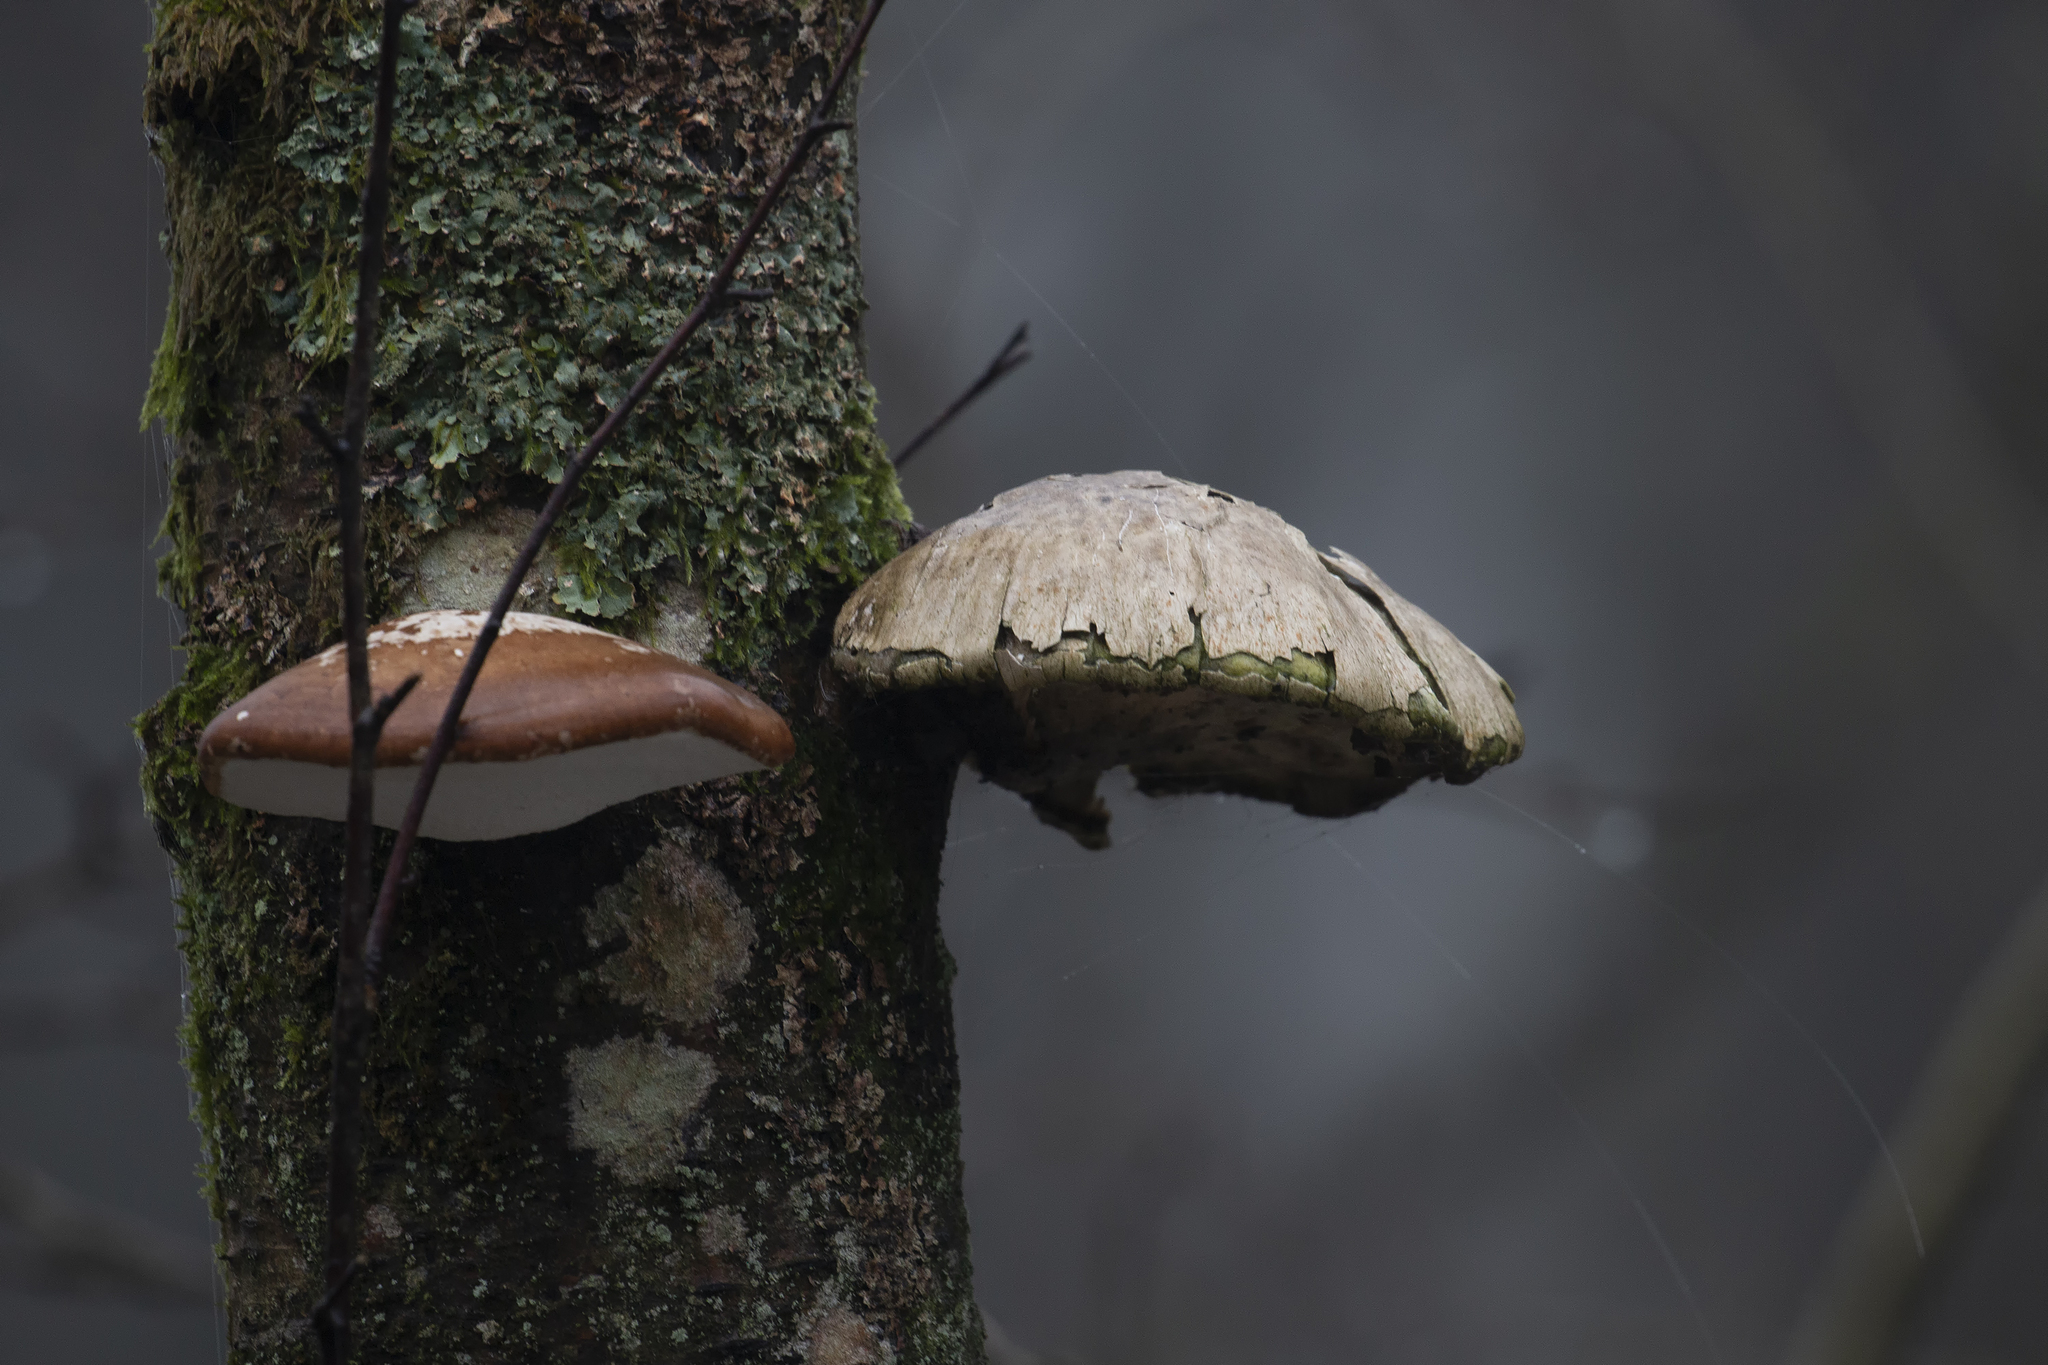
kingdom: Fungi
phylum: Basidiomycota
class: Agaricomycetes
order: Polyporales
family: Fomitopsidaceae
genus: Fomitopsis
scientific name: Fomitopsis betulina
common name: Birch polypore
